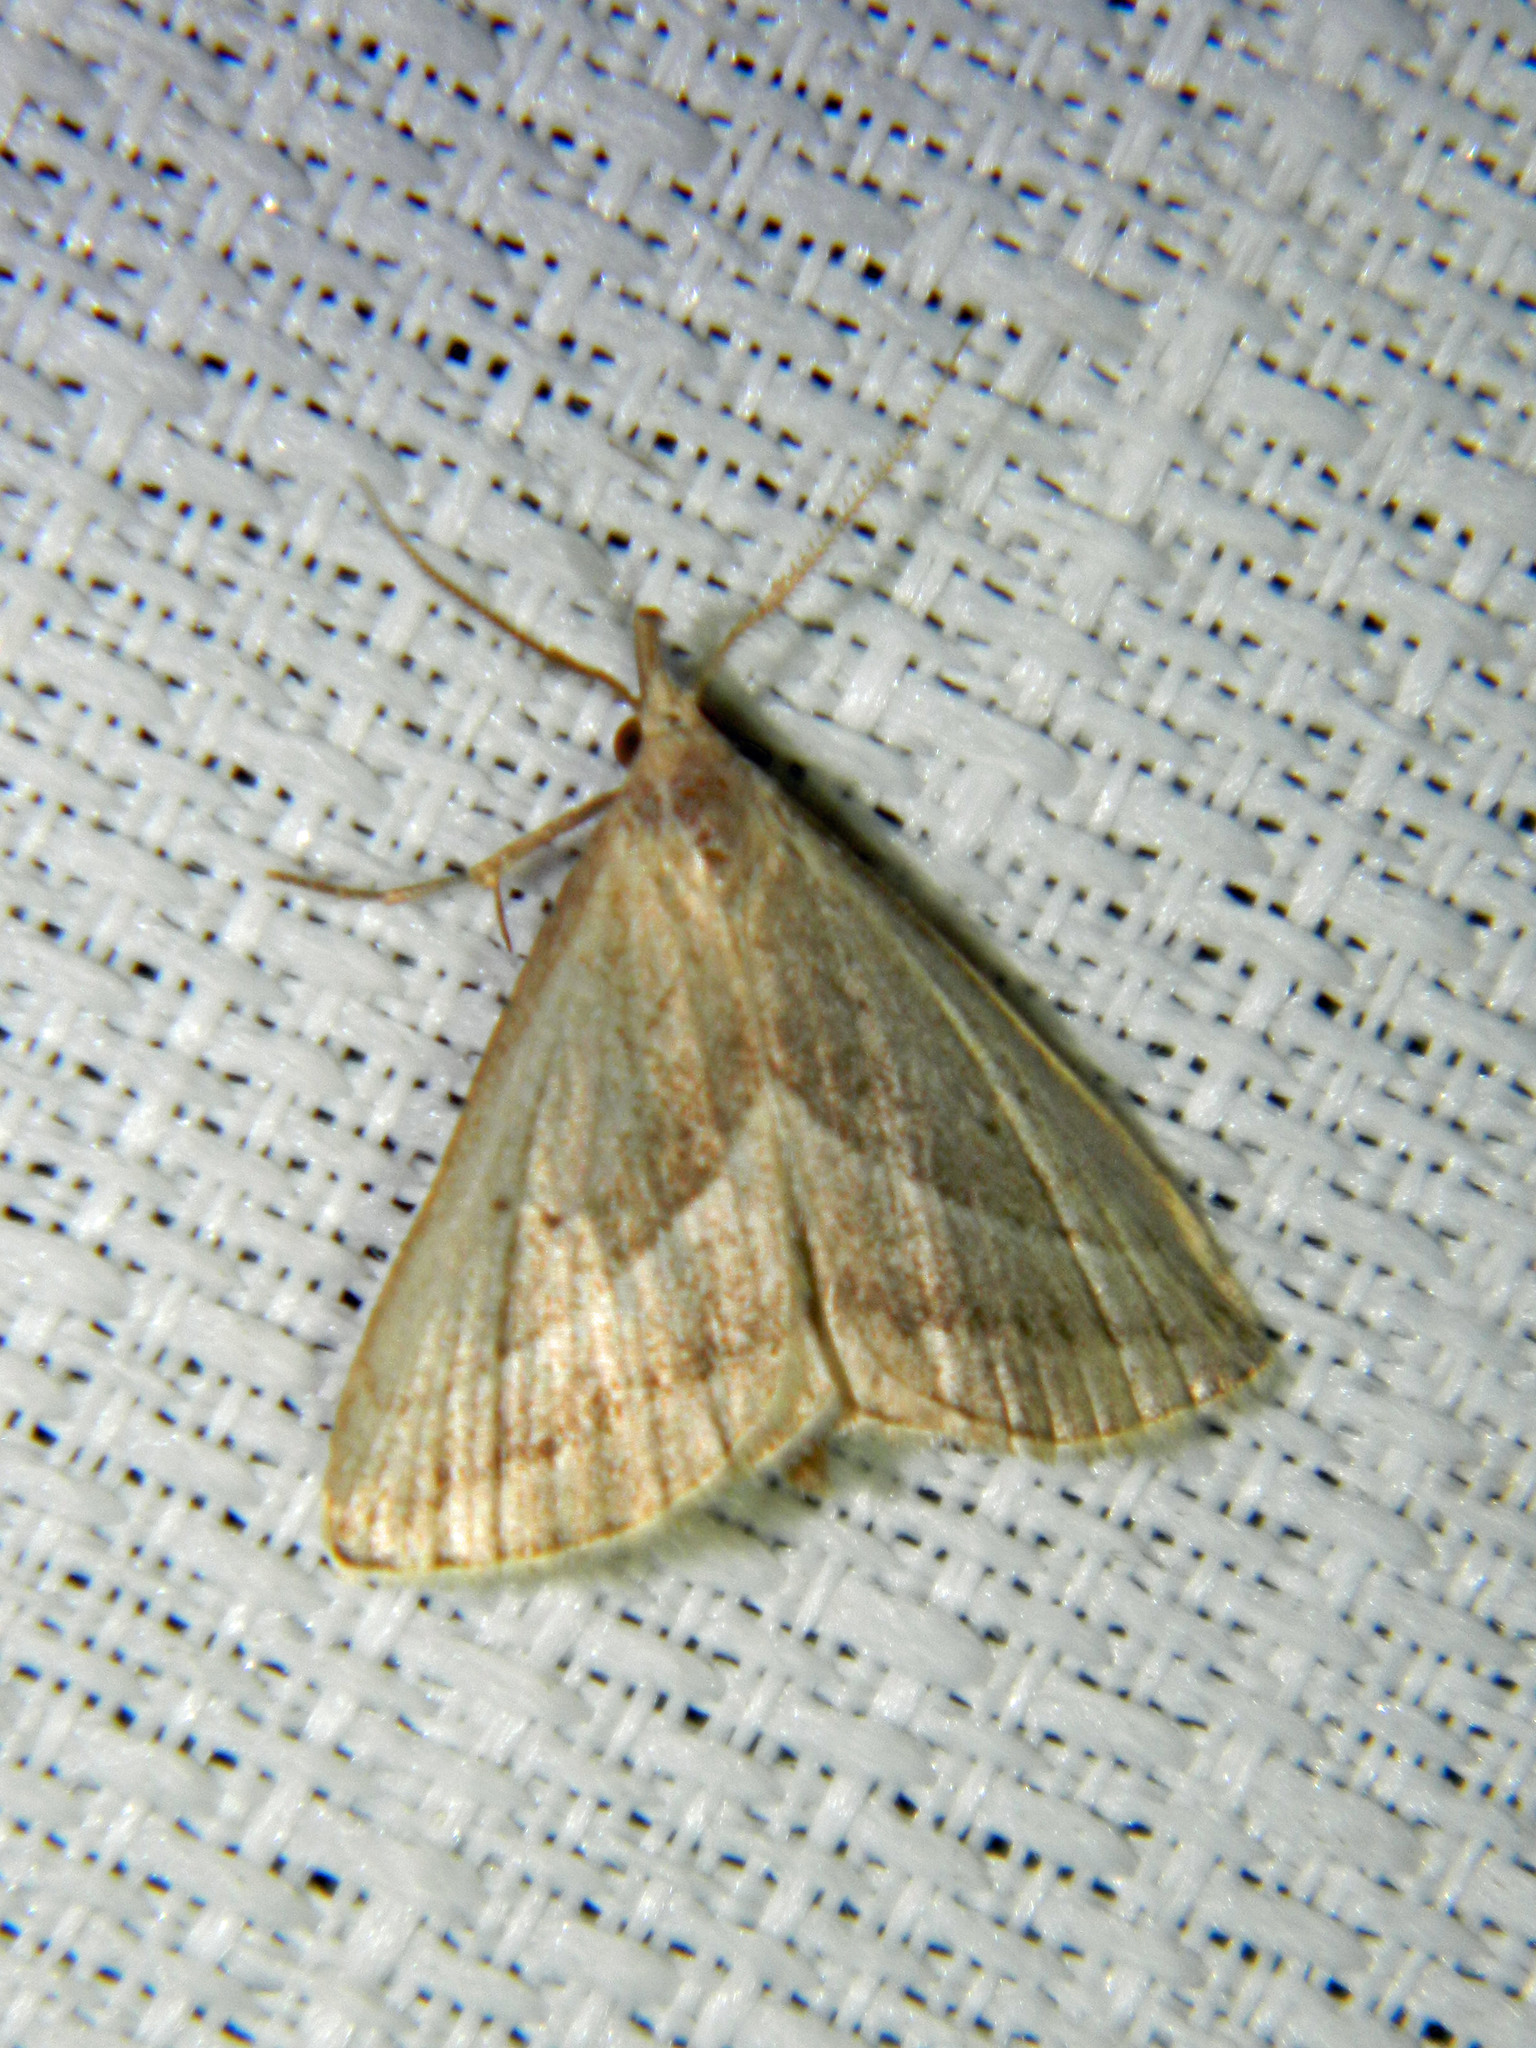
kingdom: Animalia
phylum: Arthropoda
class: Insecta
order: Lepidoptera
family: Erebidae
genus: Macrochilo
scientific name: Macrochilo absorptalis
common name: Slant-lined owlet
